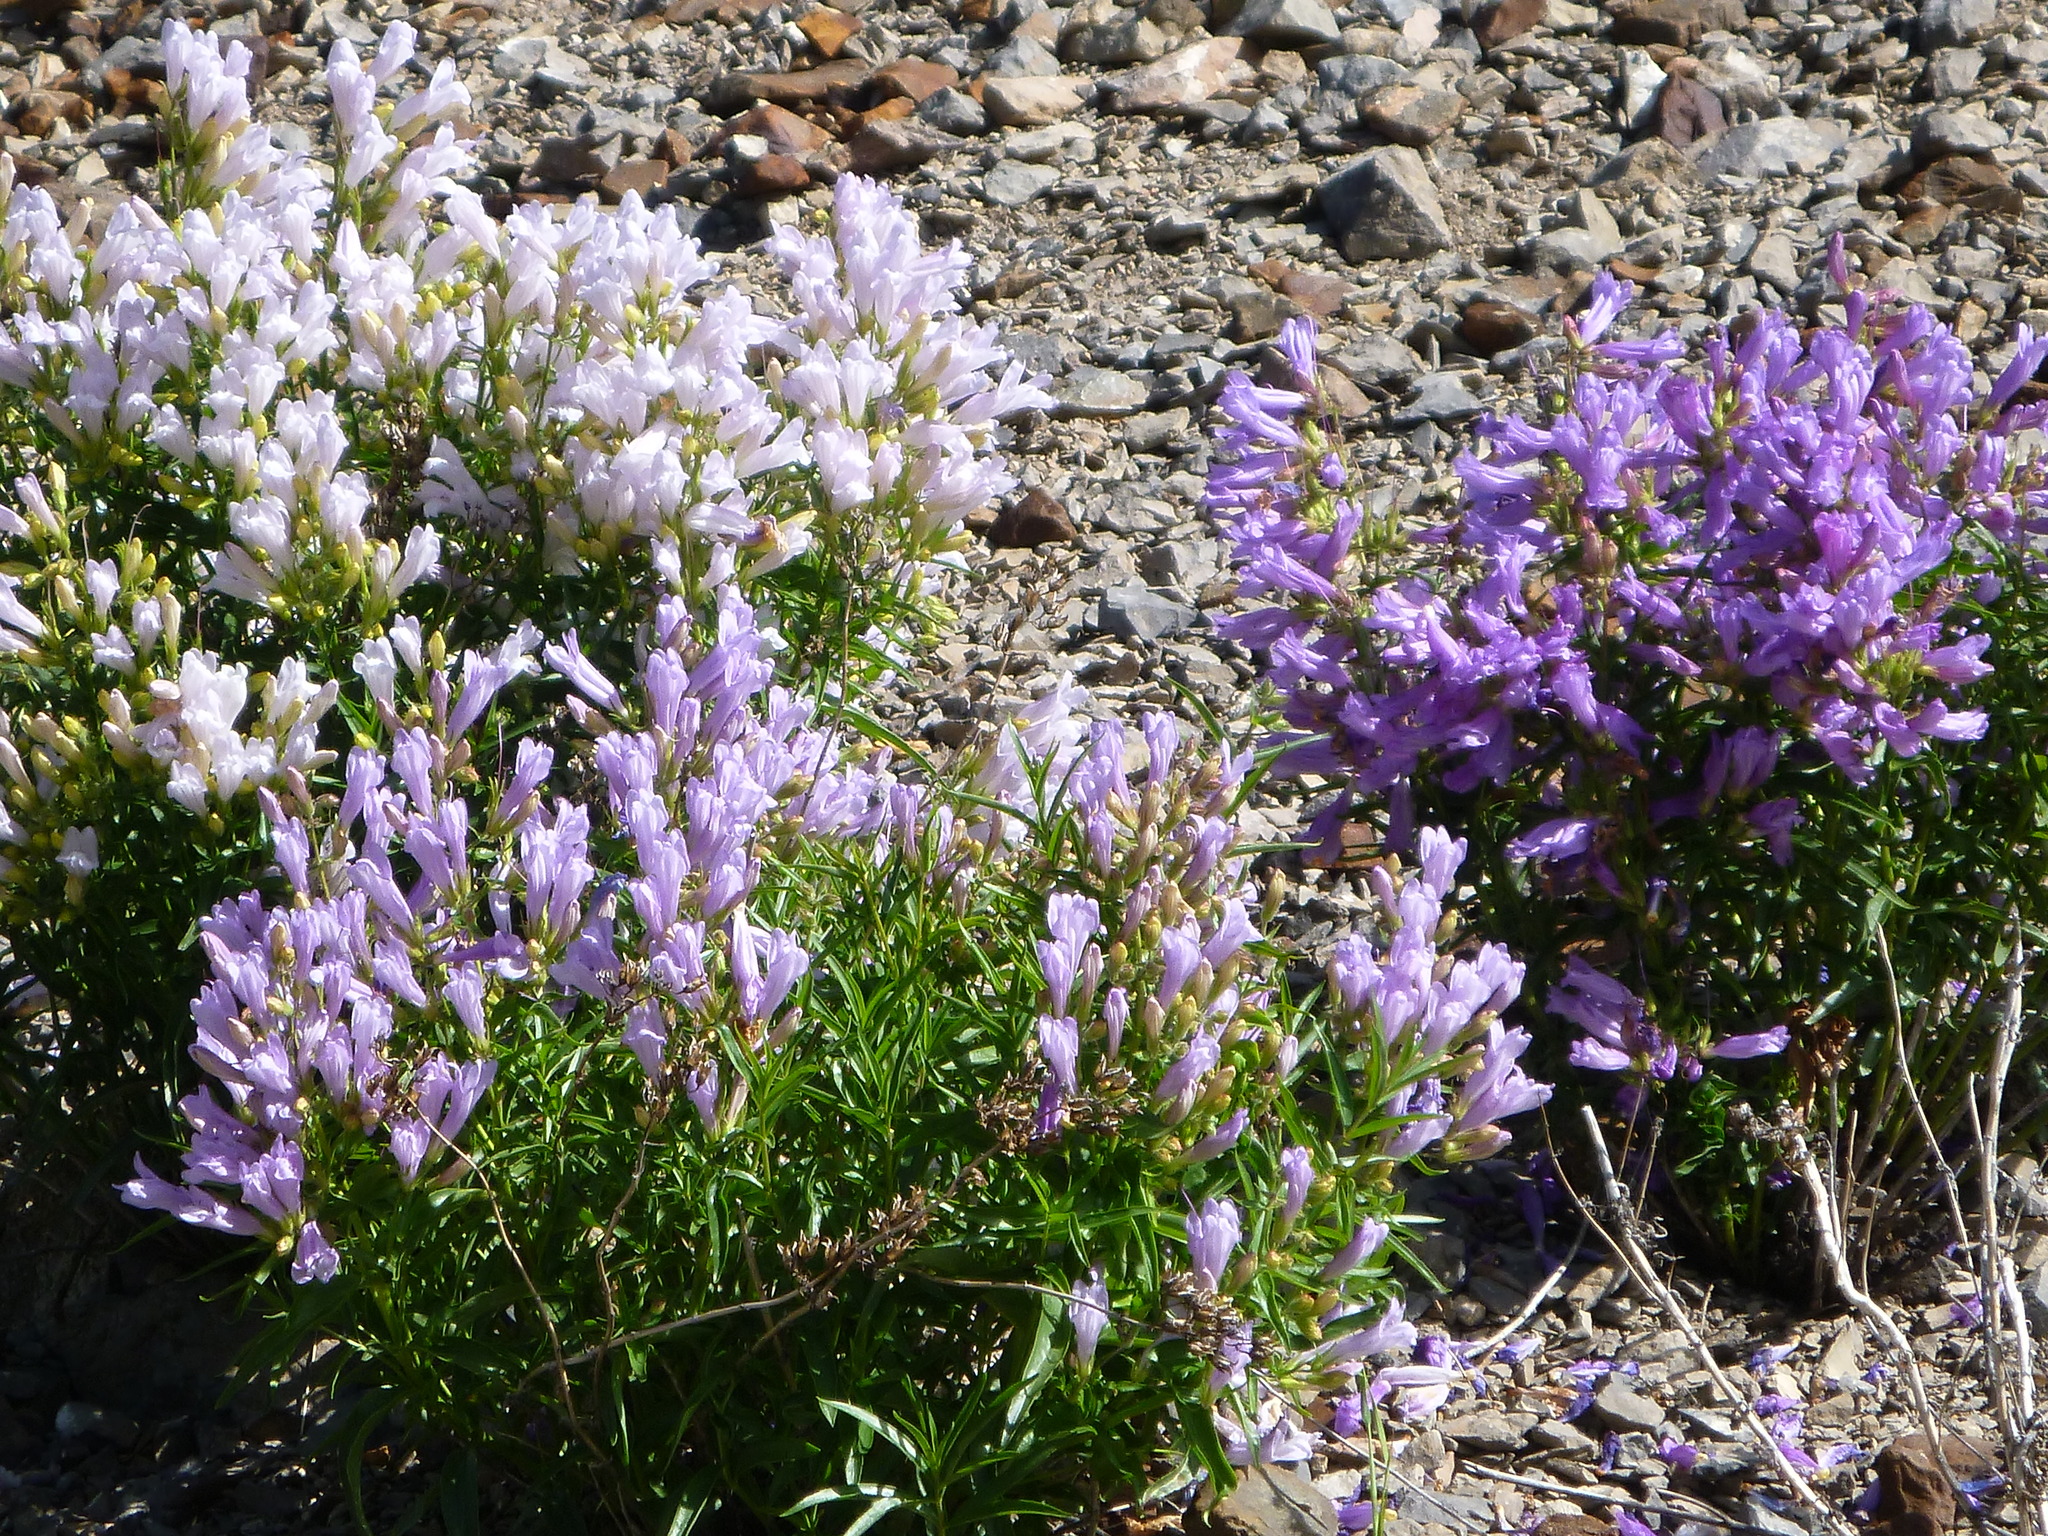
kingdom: Plantae
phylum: Tracheophyta
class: Magnoliopsida
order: Lamiales
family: Plantaginaceae
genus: Penstemon
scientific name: Penstemon lyalli
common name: Lyall's beardtongue
